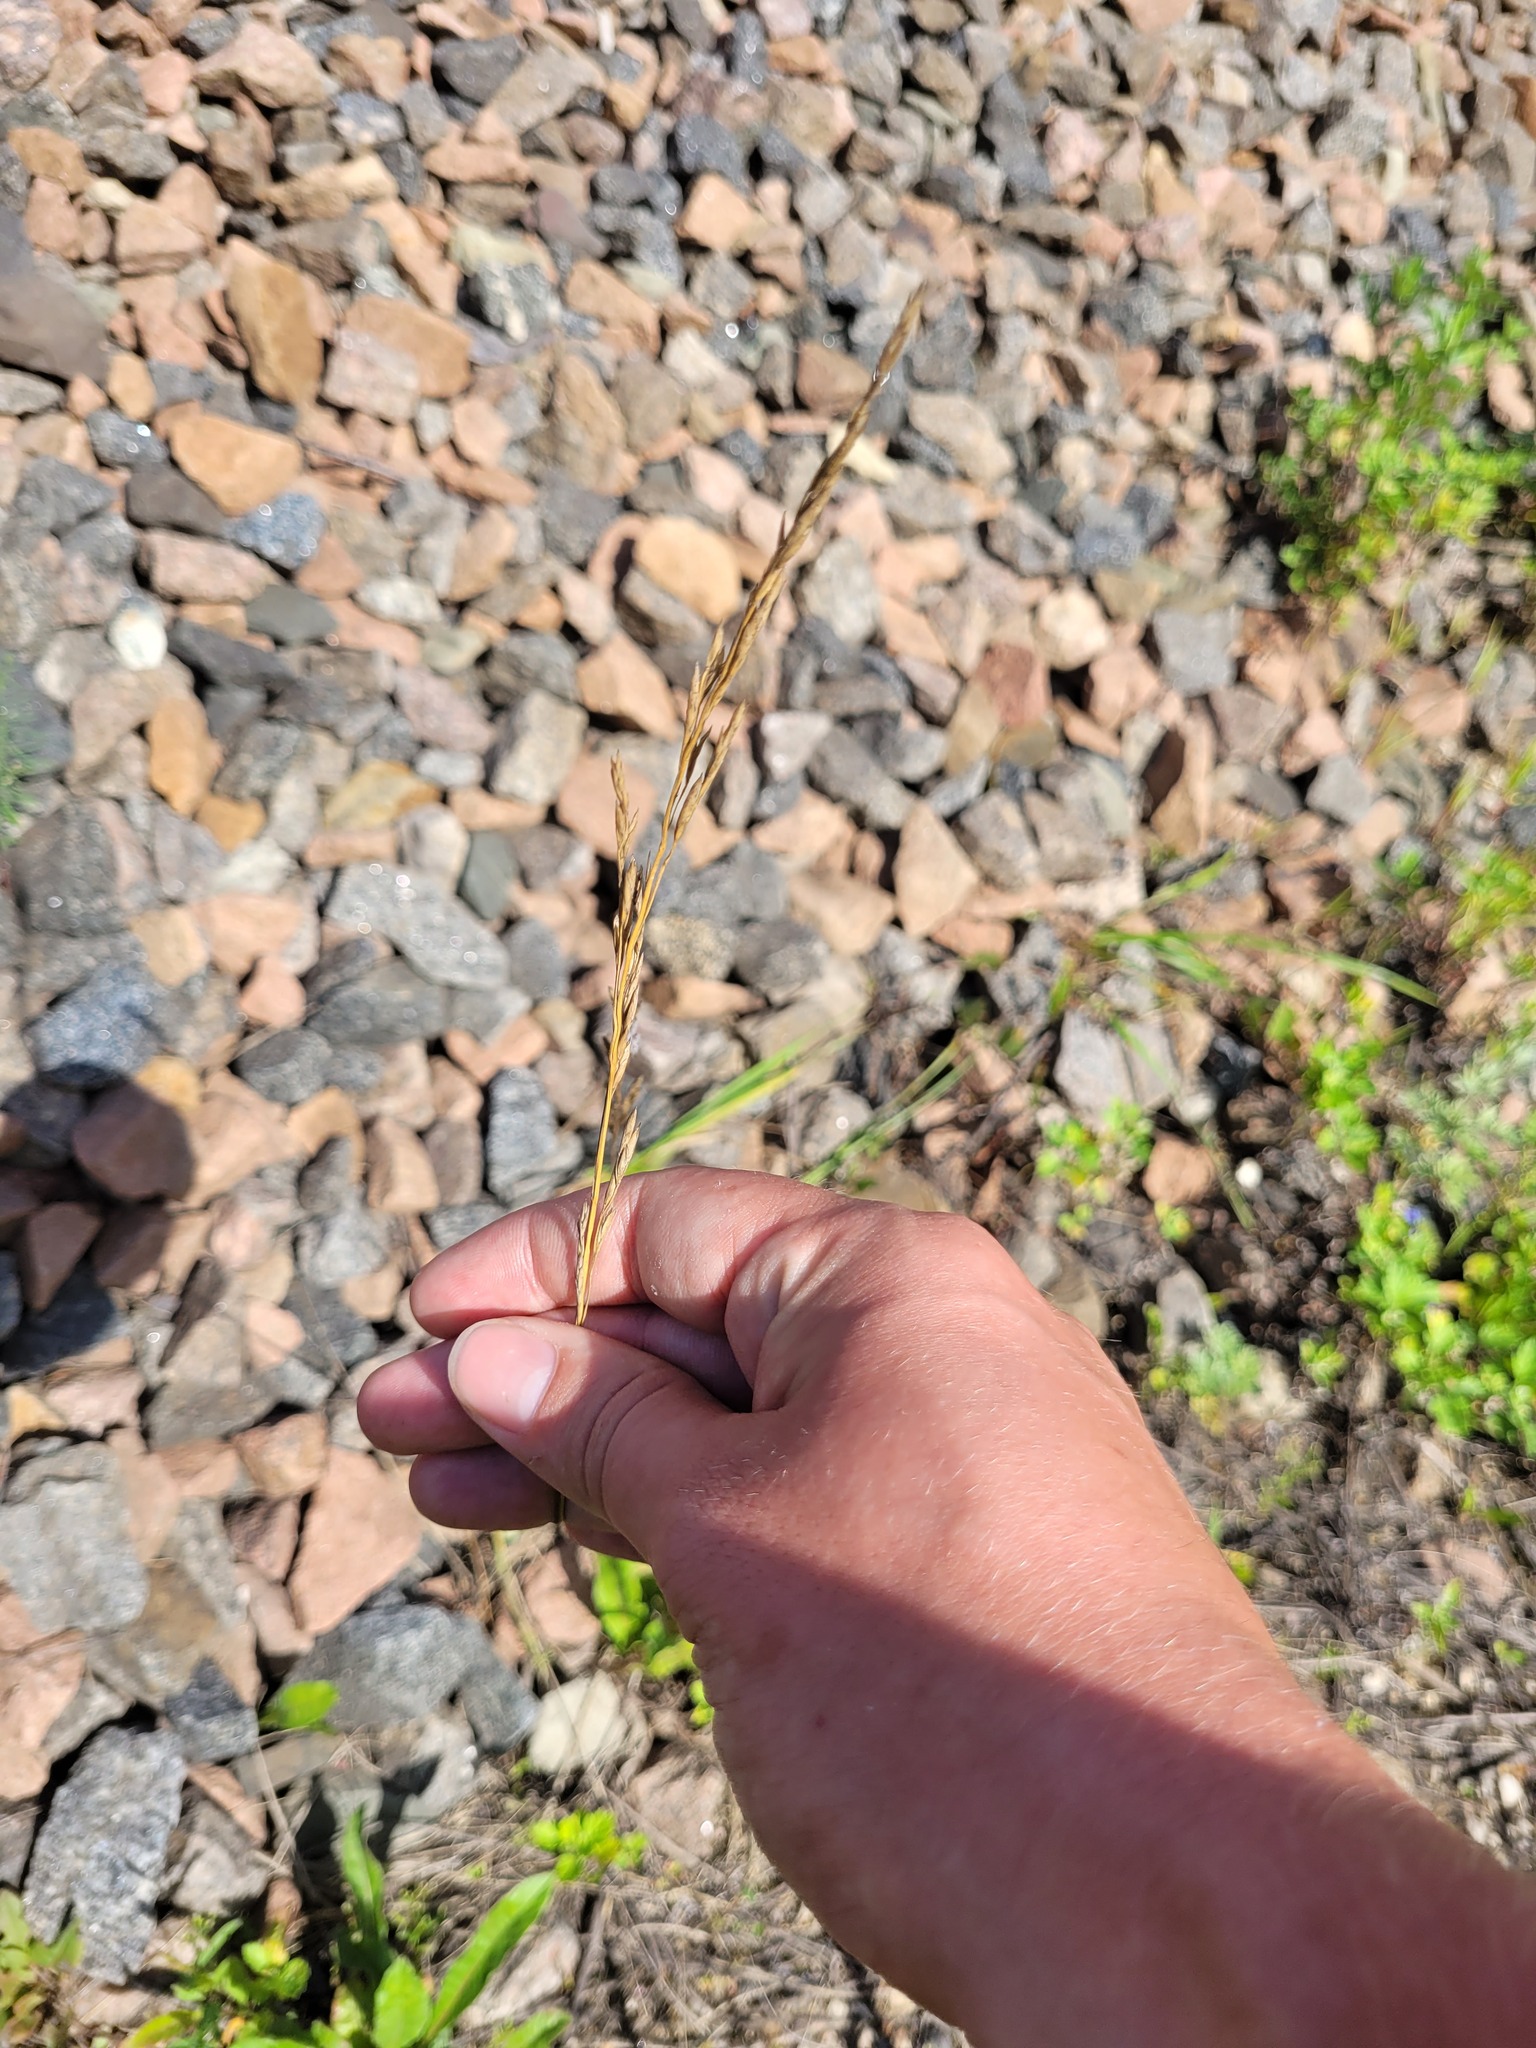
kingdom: Plantae
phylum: Tracheophyta
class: Liliopsida
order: Poales
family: Poaceae
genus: Lolium
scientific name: Lolium pratense
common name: Dover grass
